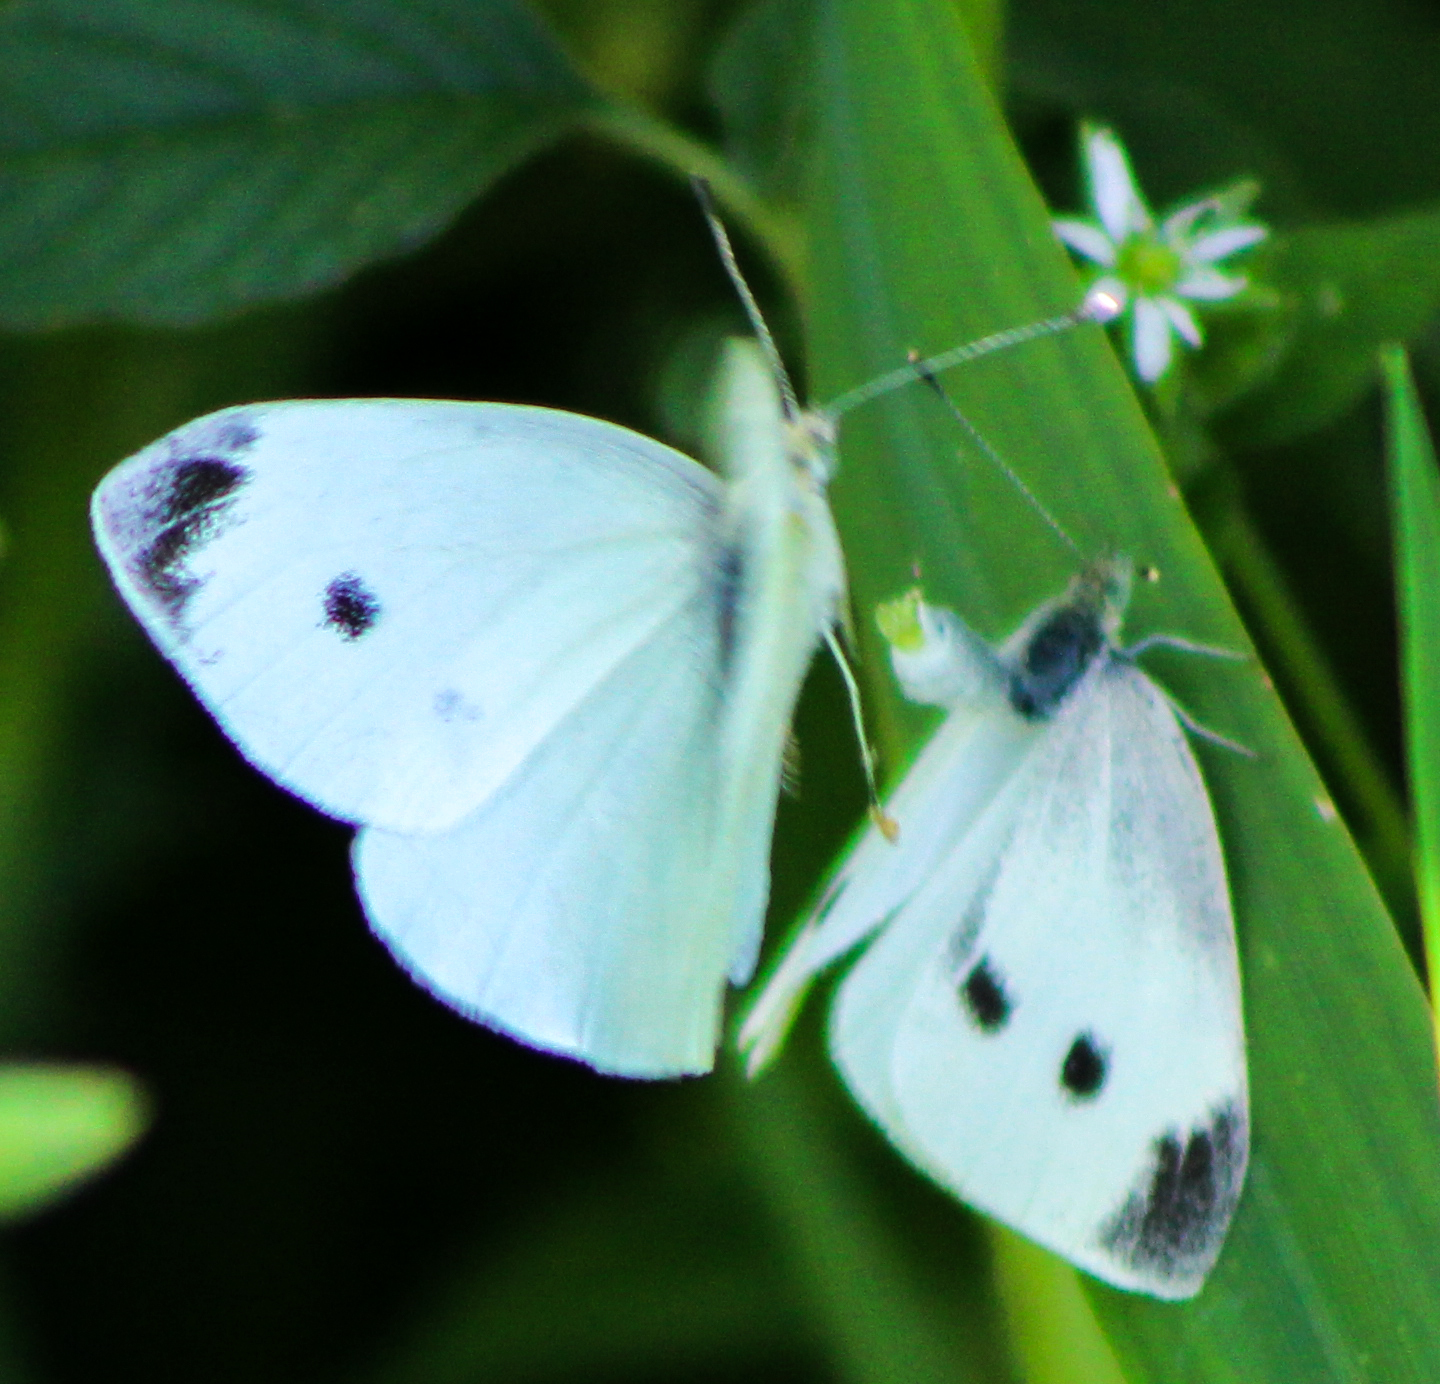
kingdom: Animalia
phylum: Arthropoda
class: Insecta
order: Lepidoptera
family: Pieridae
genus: Pieris
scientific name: Pieris rapae
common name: Small white
